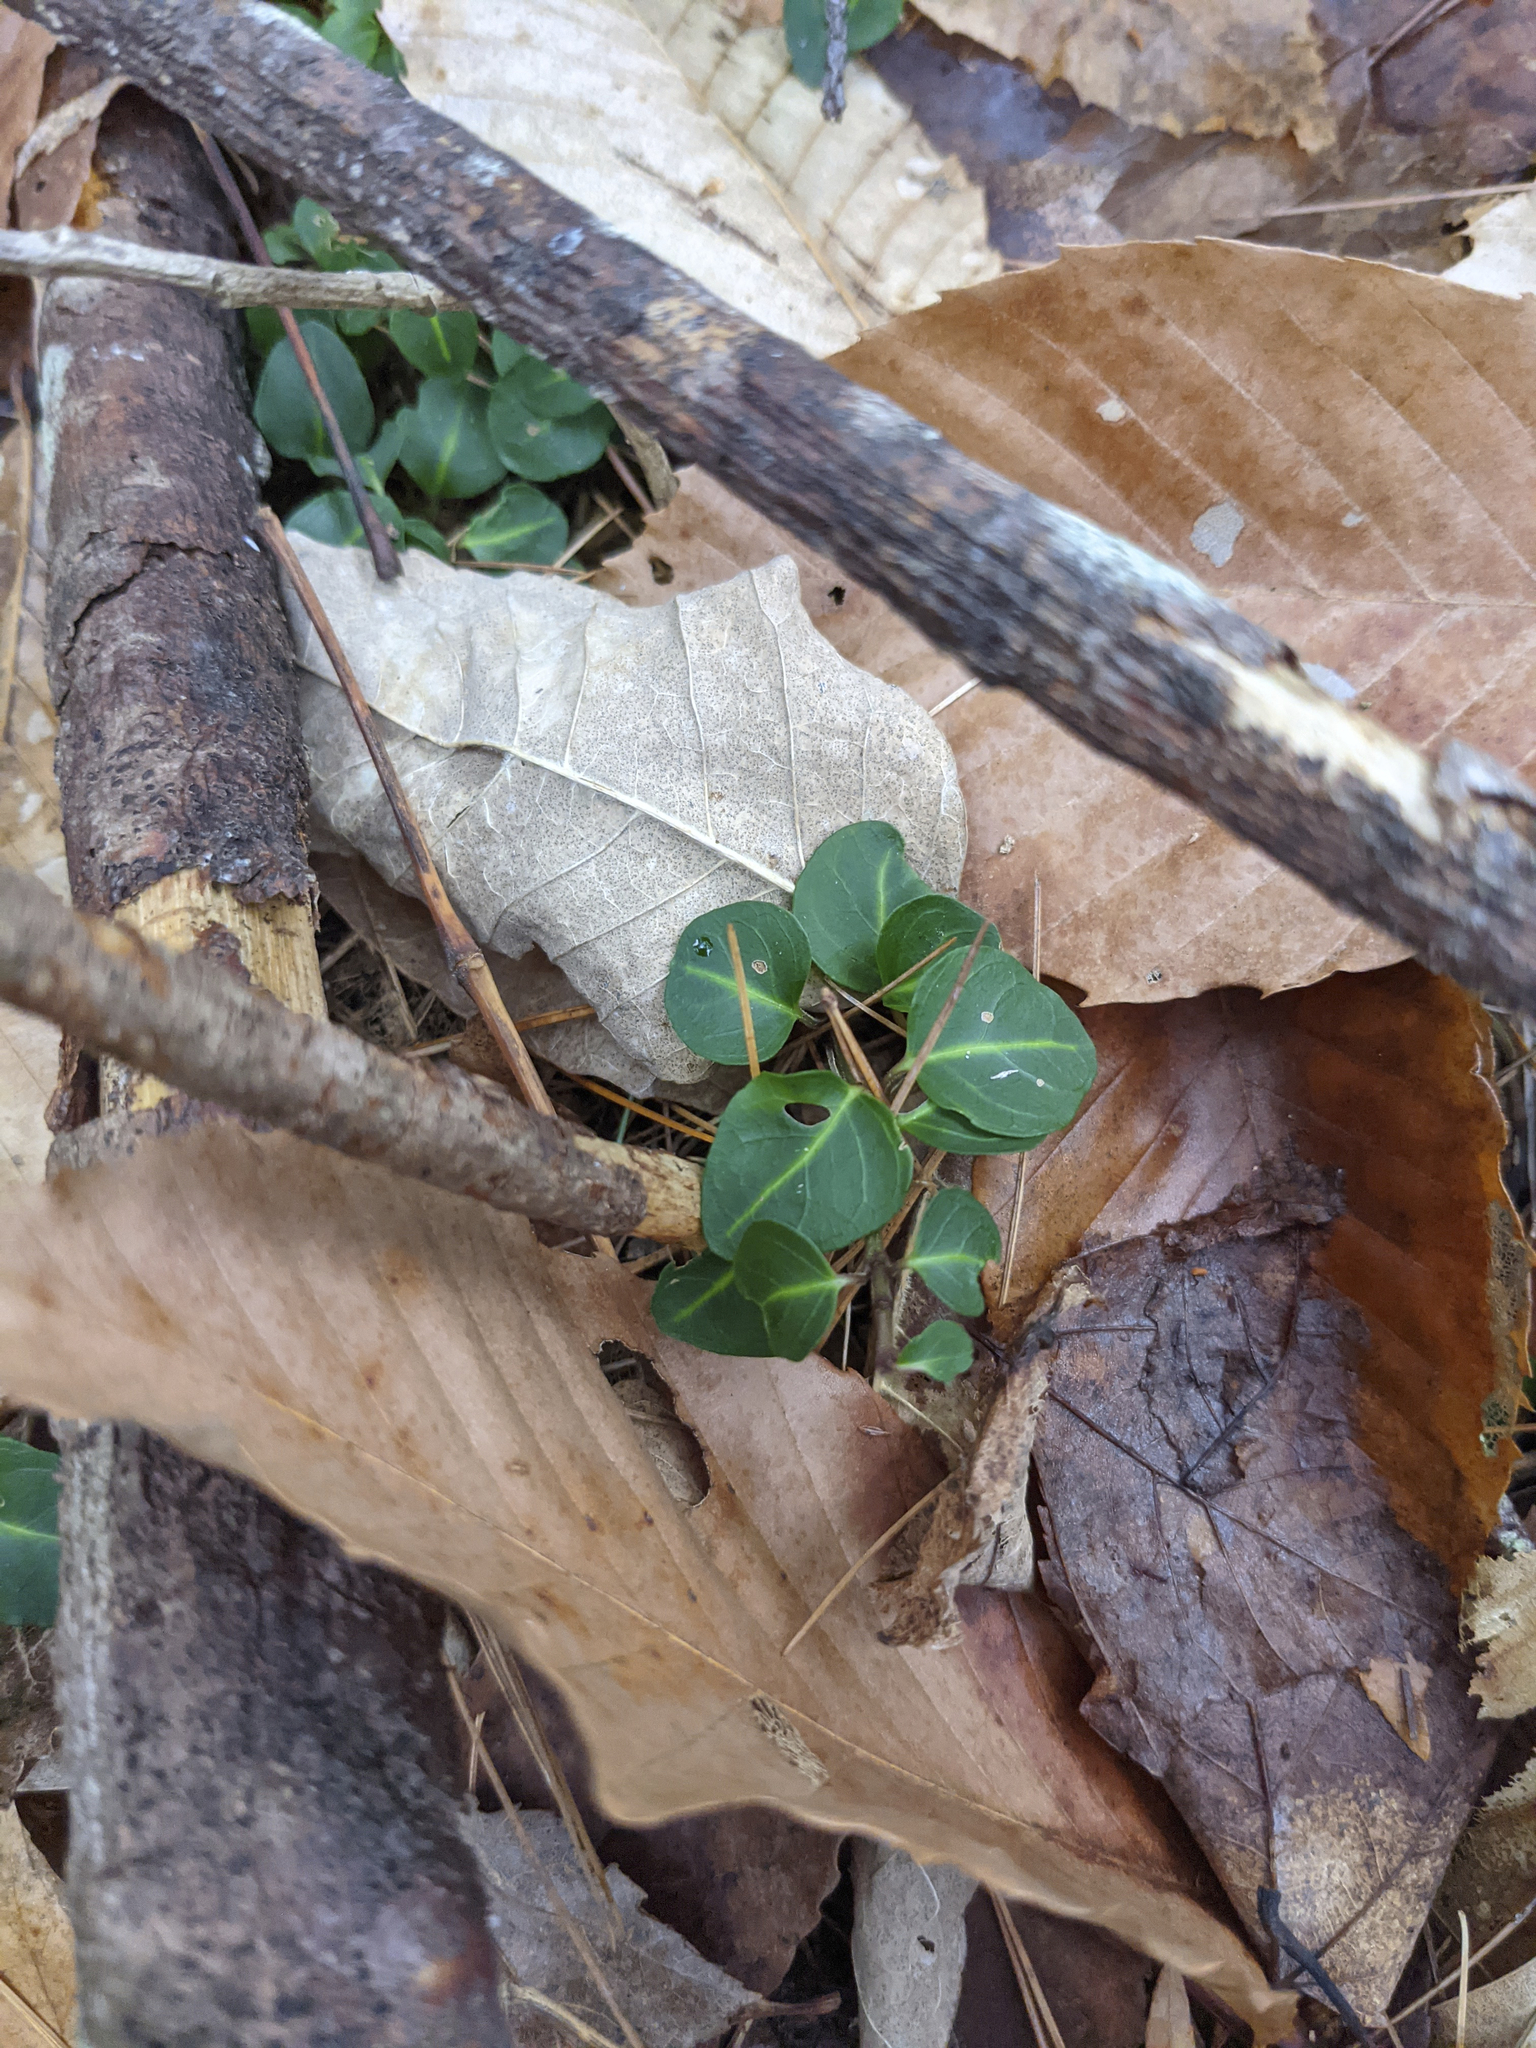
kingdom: Plantae
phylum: Tracheophyta
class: Magnoliopsida
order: Gentianales
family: Rubiaceae
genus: Mitchella
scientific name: Mitchella repens
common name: Partridge-berry
